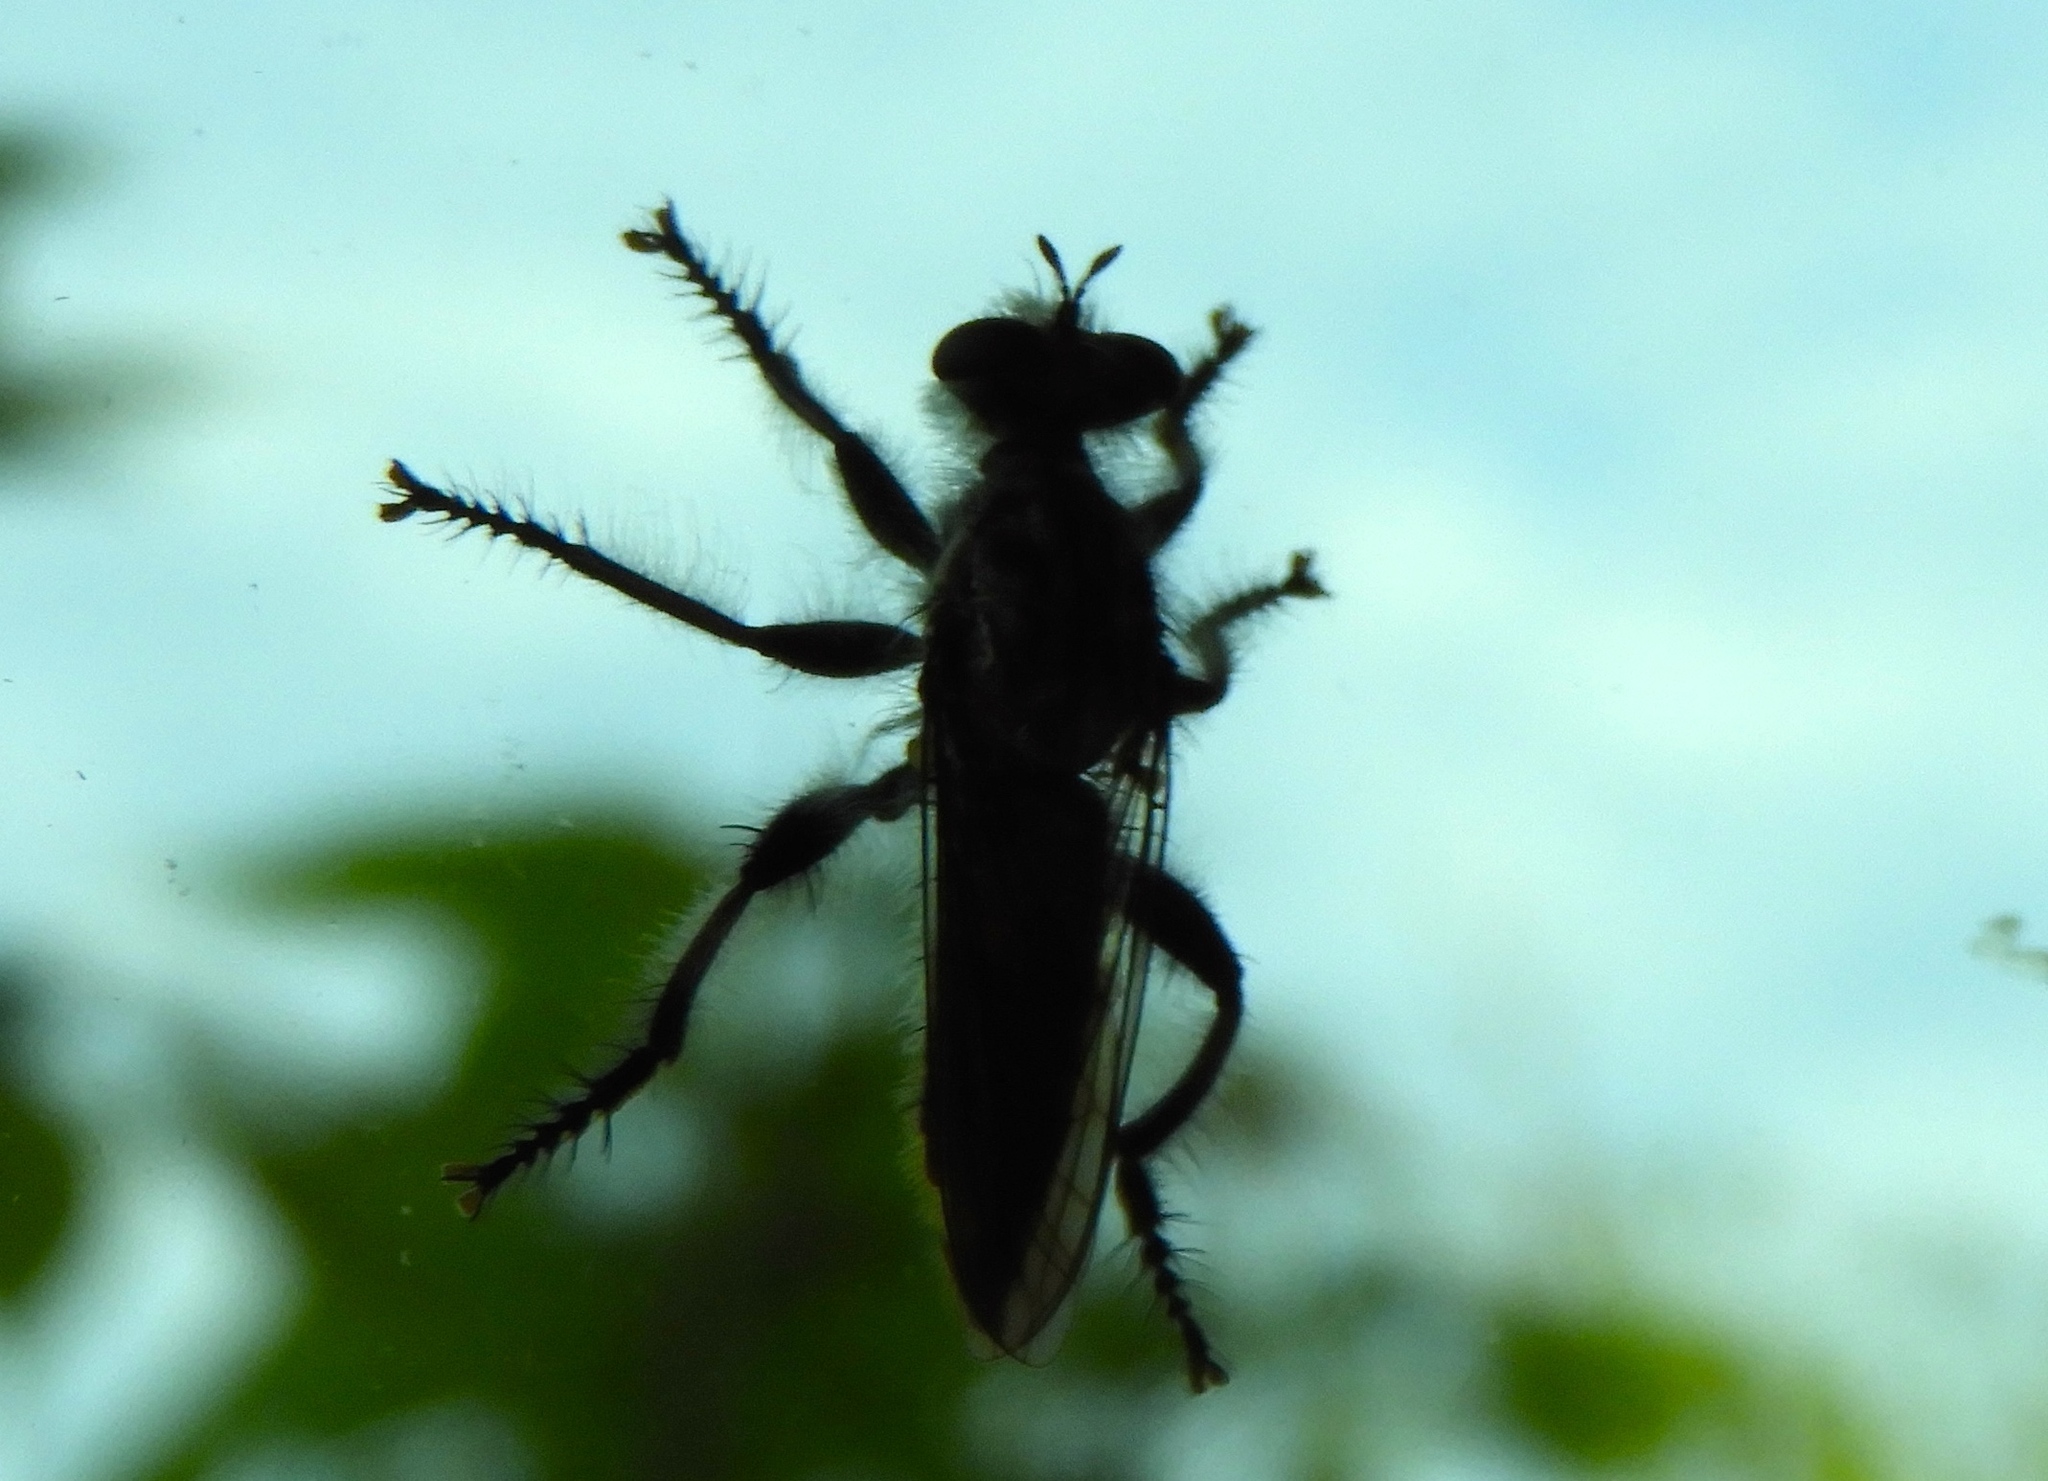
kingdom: Animalia
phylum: Arthropoda
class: Insecta
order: Diptera
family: Asilidae
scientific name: Asilidae
